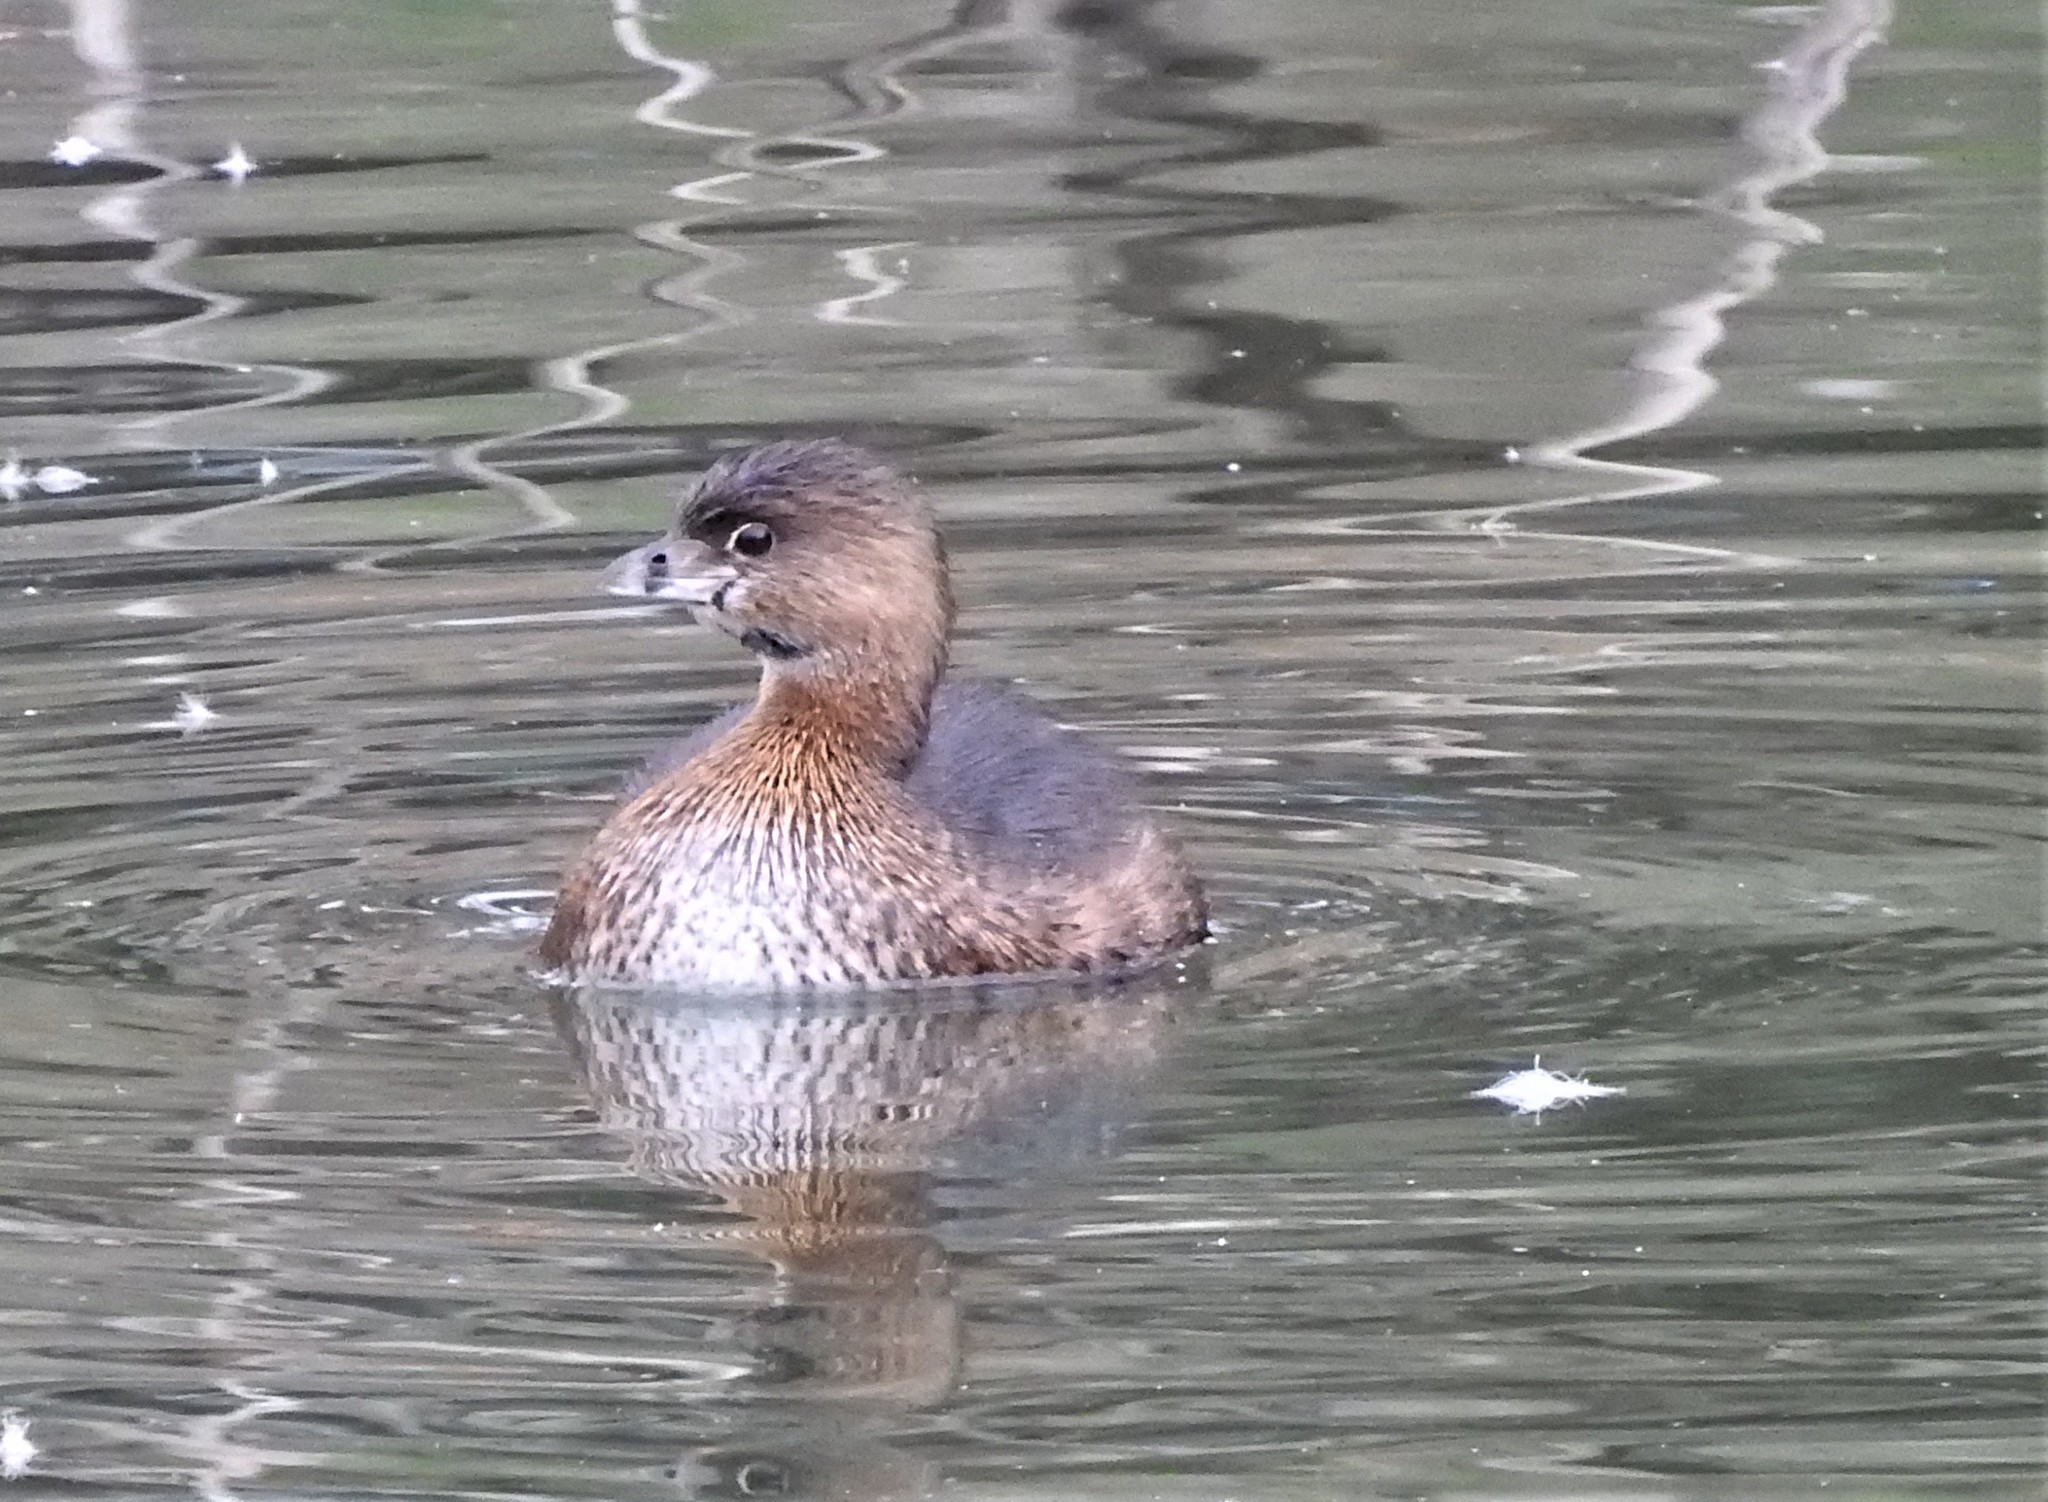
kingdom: Animalia
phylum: Chordata
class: Aves
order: Podicipediformes
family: Podicipedidae
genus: Podilymbus
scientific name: Podilymbus podiceps
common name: Pied-billed grebe
